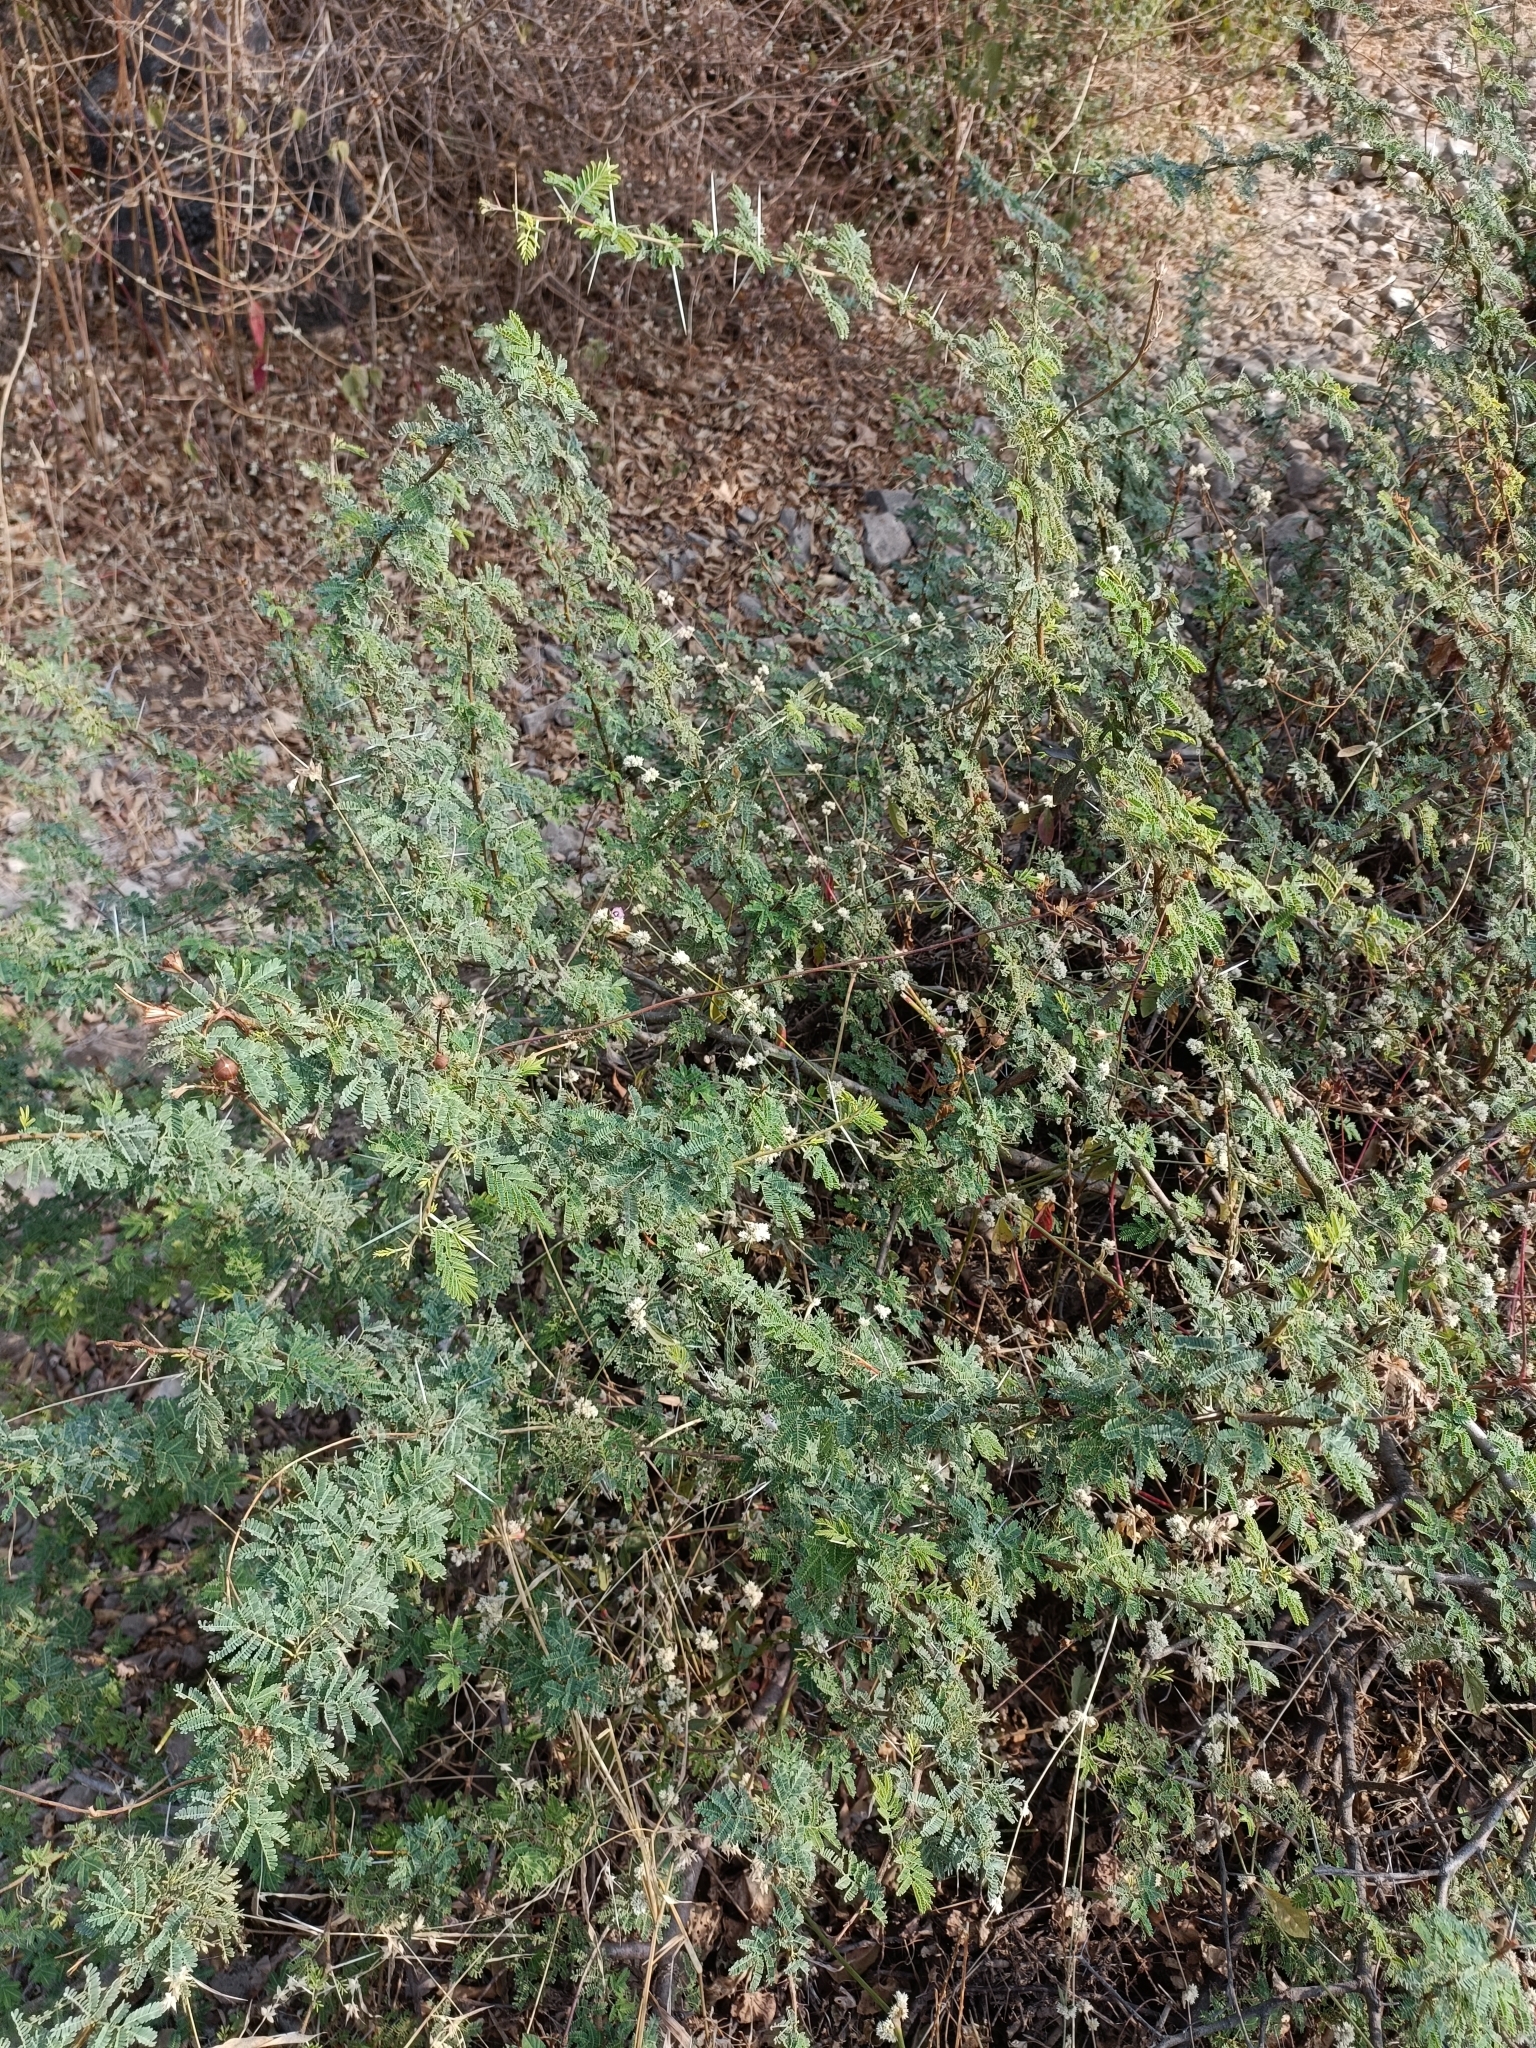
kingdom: Plantae
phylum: Tracheophyta
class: Magnoliopsida
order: Fabales
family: Fabaceae
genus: Vachellia
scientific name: Vachellia nilotica
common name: Arabic gumtree
